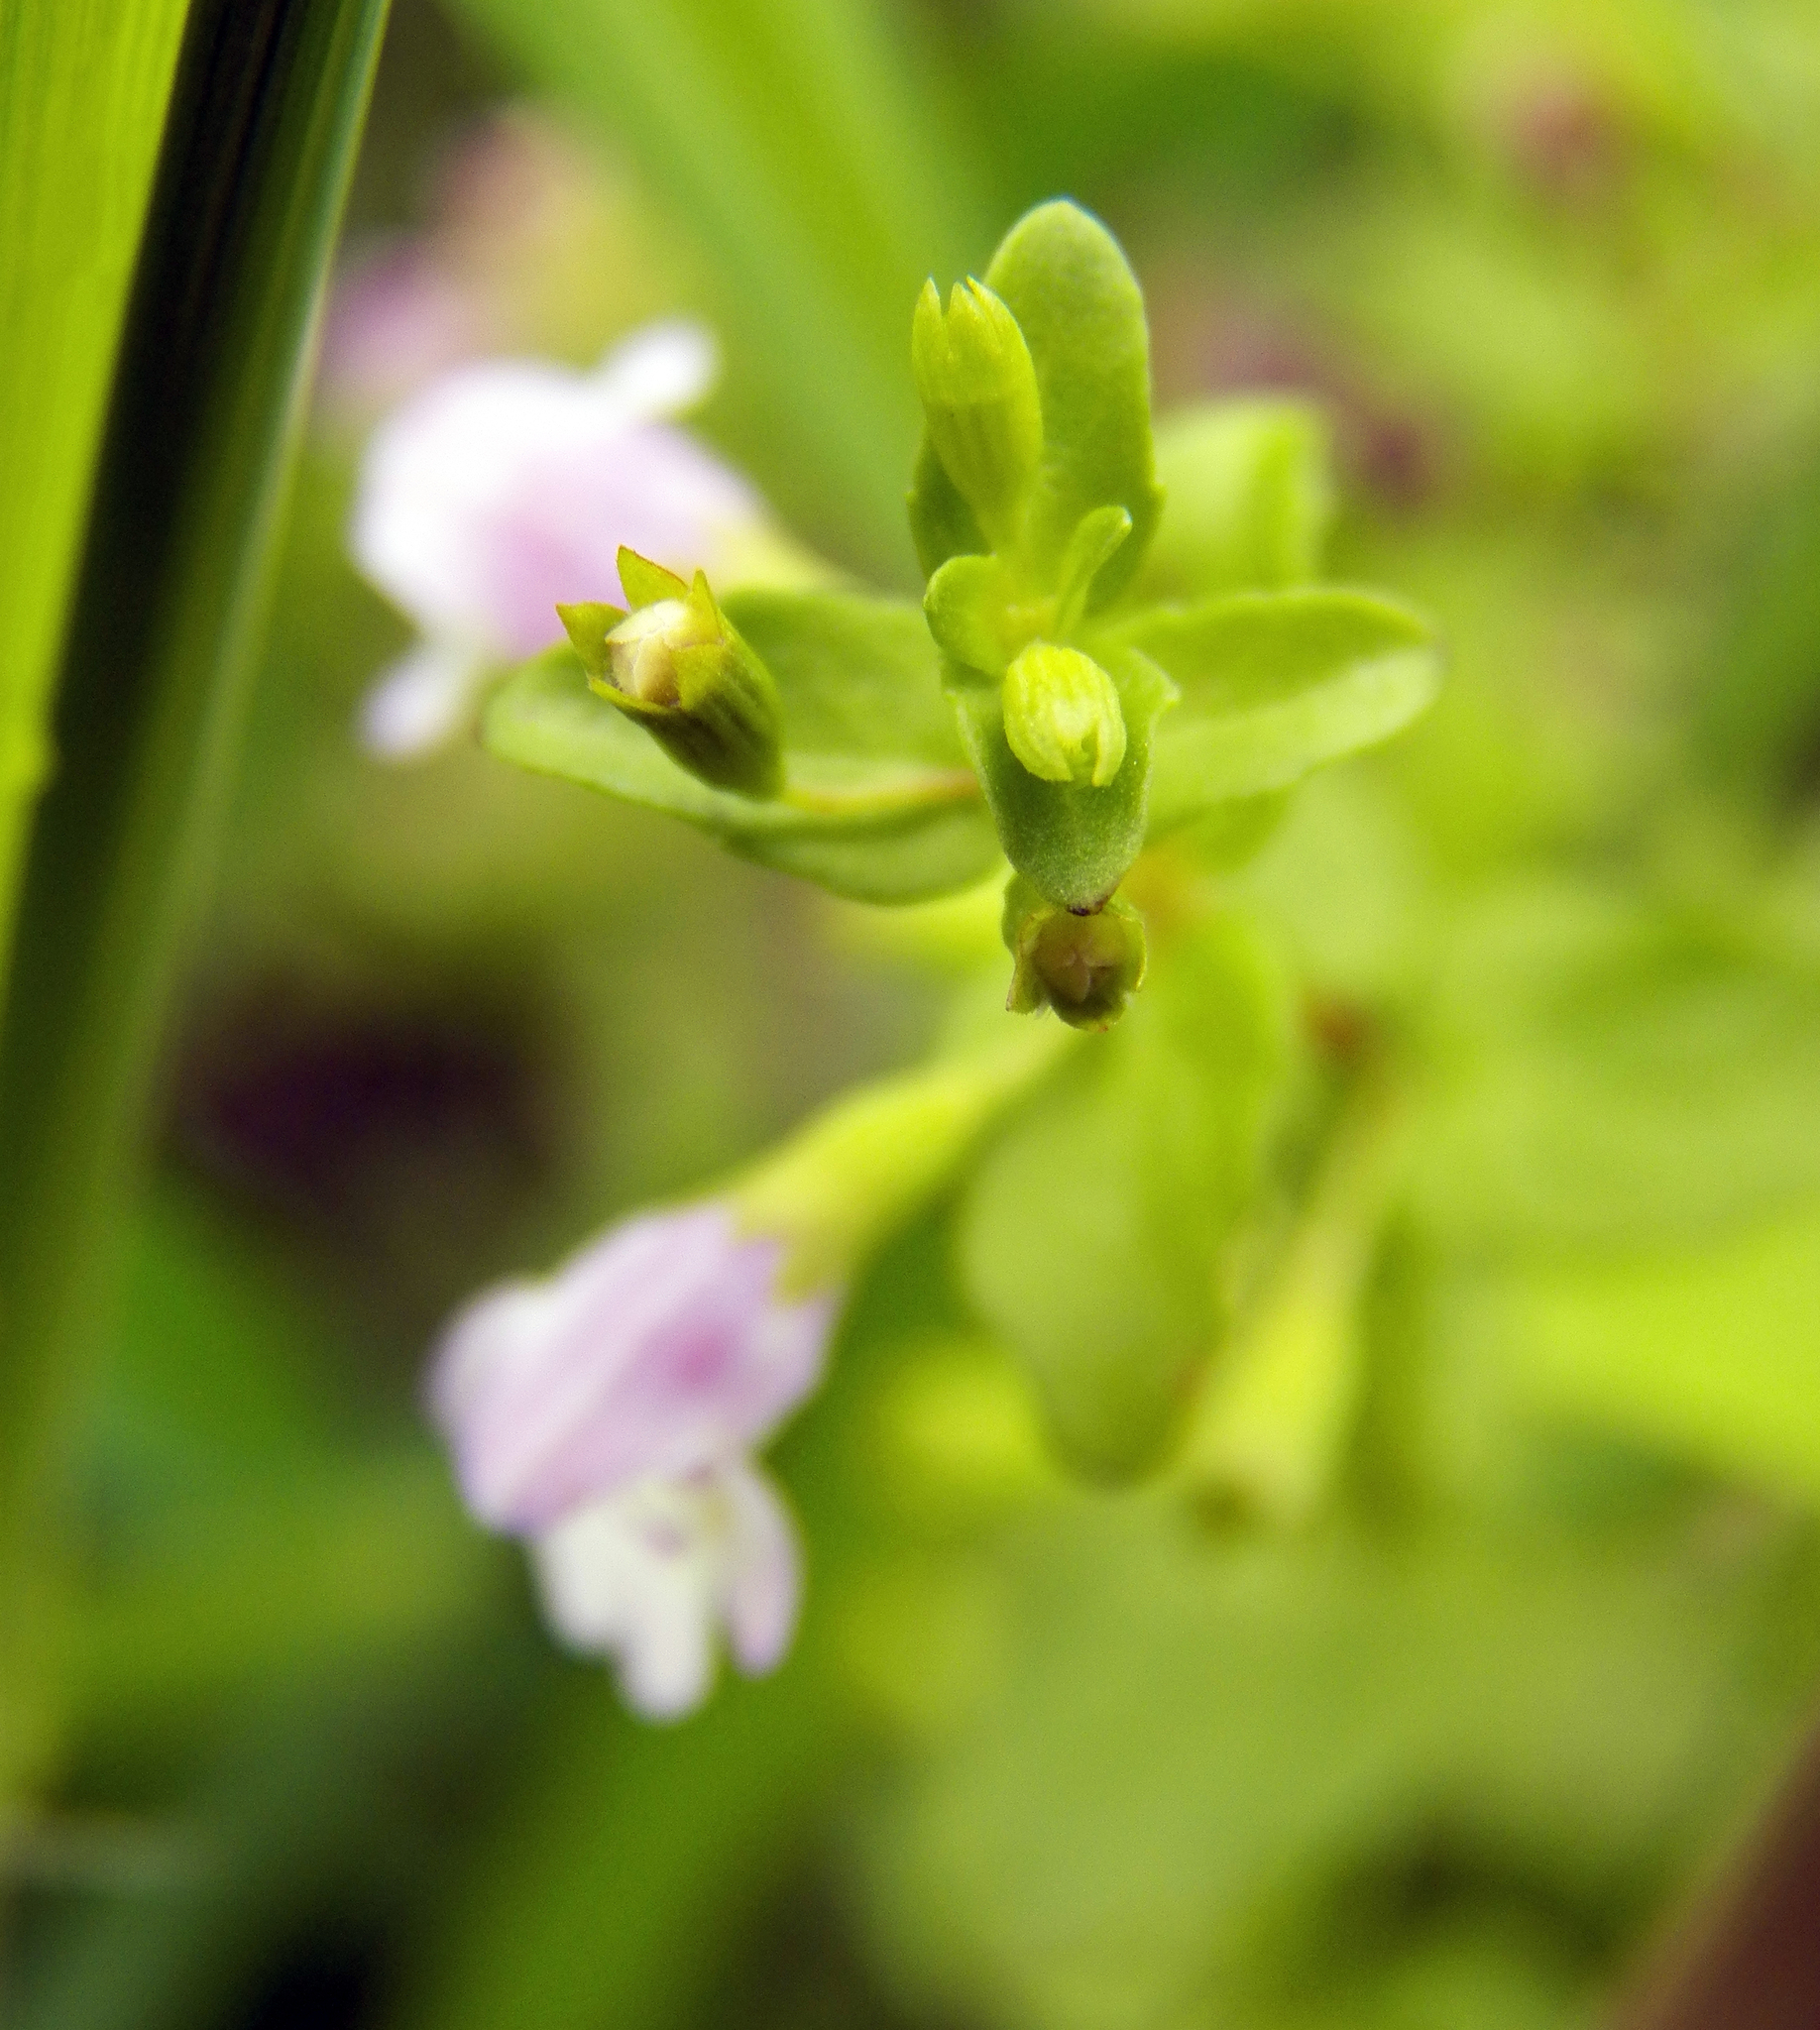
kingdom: Plantae
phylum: Tracheophyta
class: Magnoliopsida
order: Lamiales
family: Lamiaceae
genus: Clinopodium
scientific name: Clinopodium brownei
